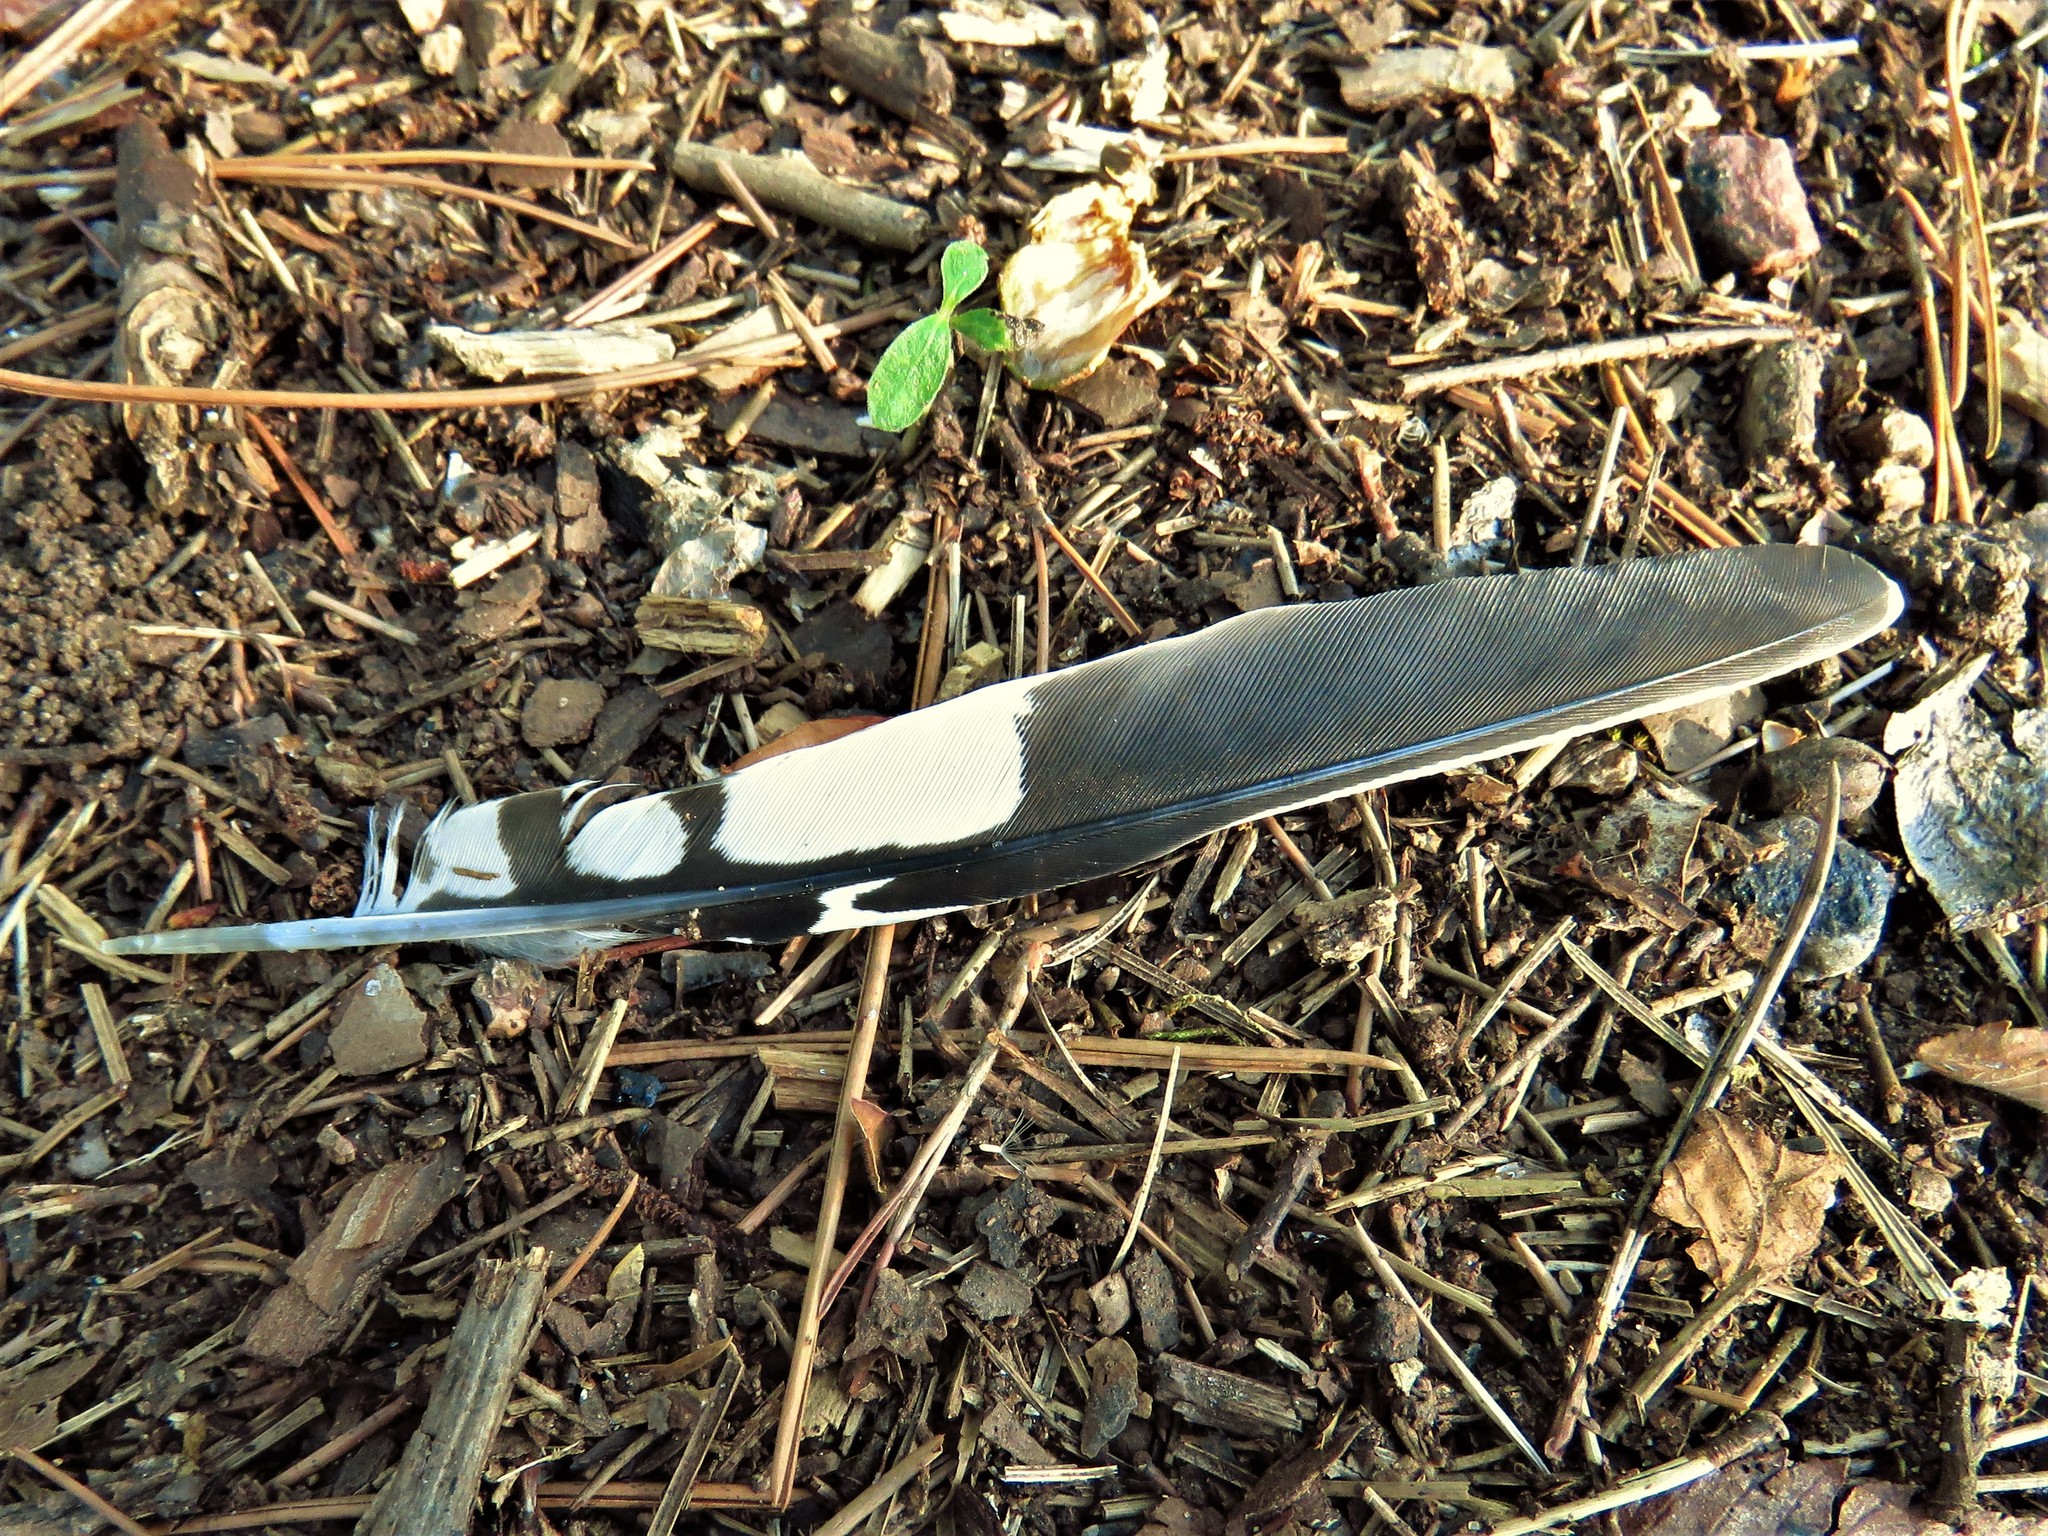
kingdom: Animalia
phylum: Chordata
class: Aves
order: Piciformes
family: Picidae
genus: Melanerpes
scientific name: Melanerpes carolinus
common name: Red-bellied woodpecker
